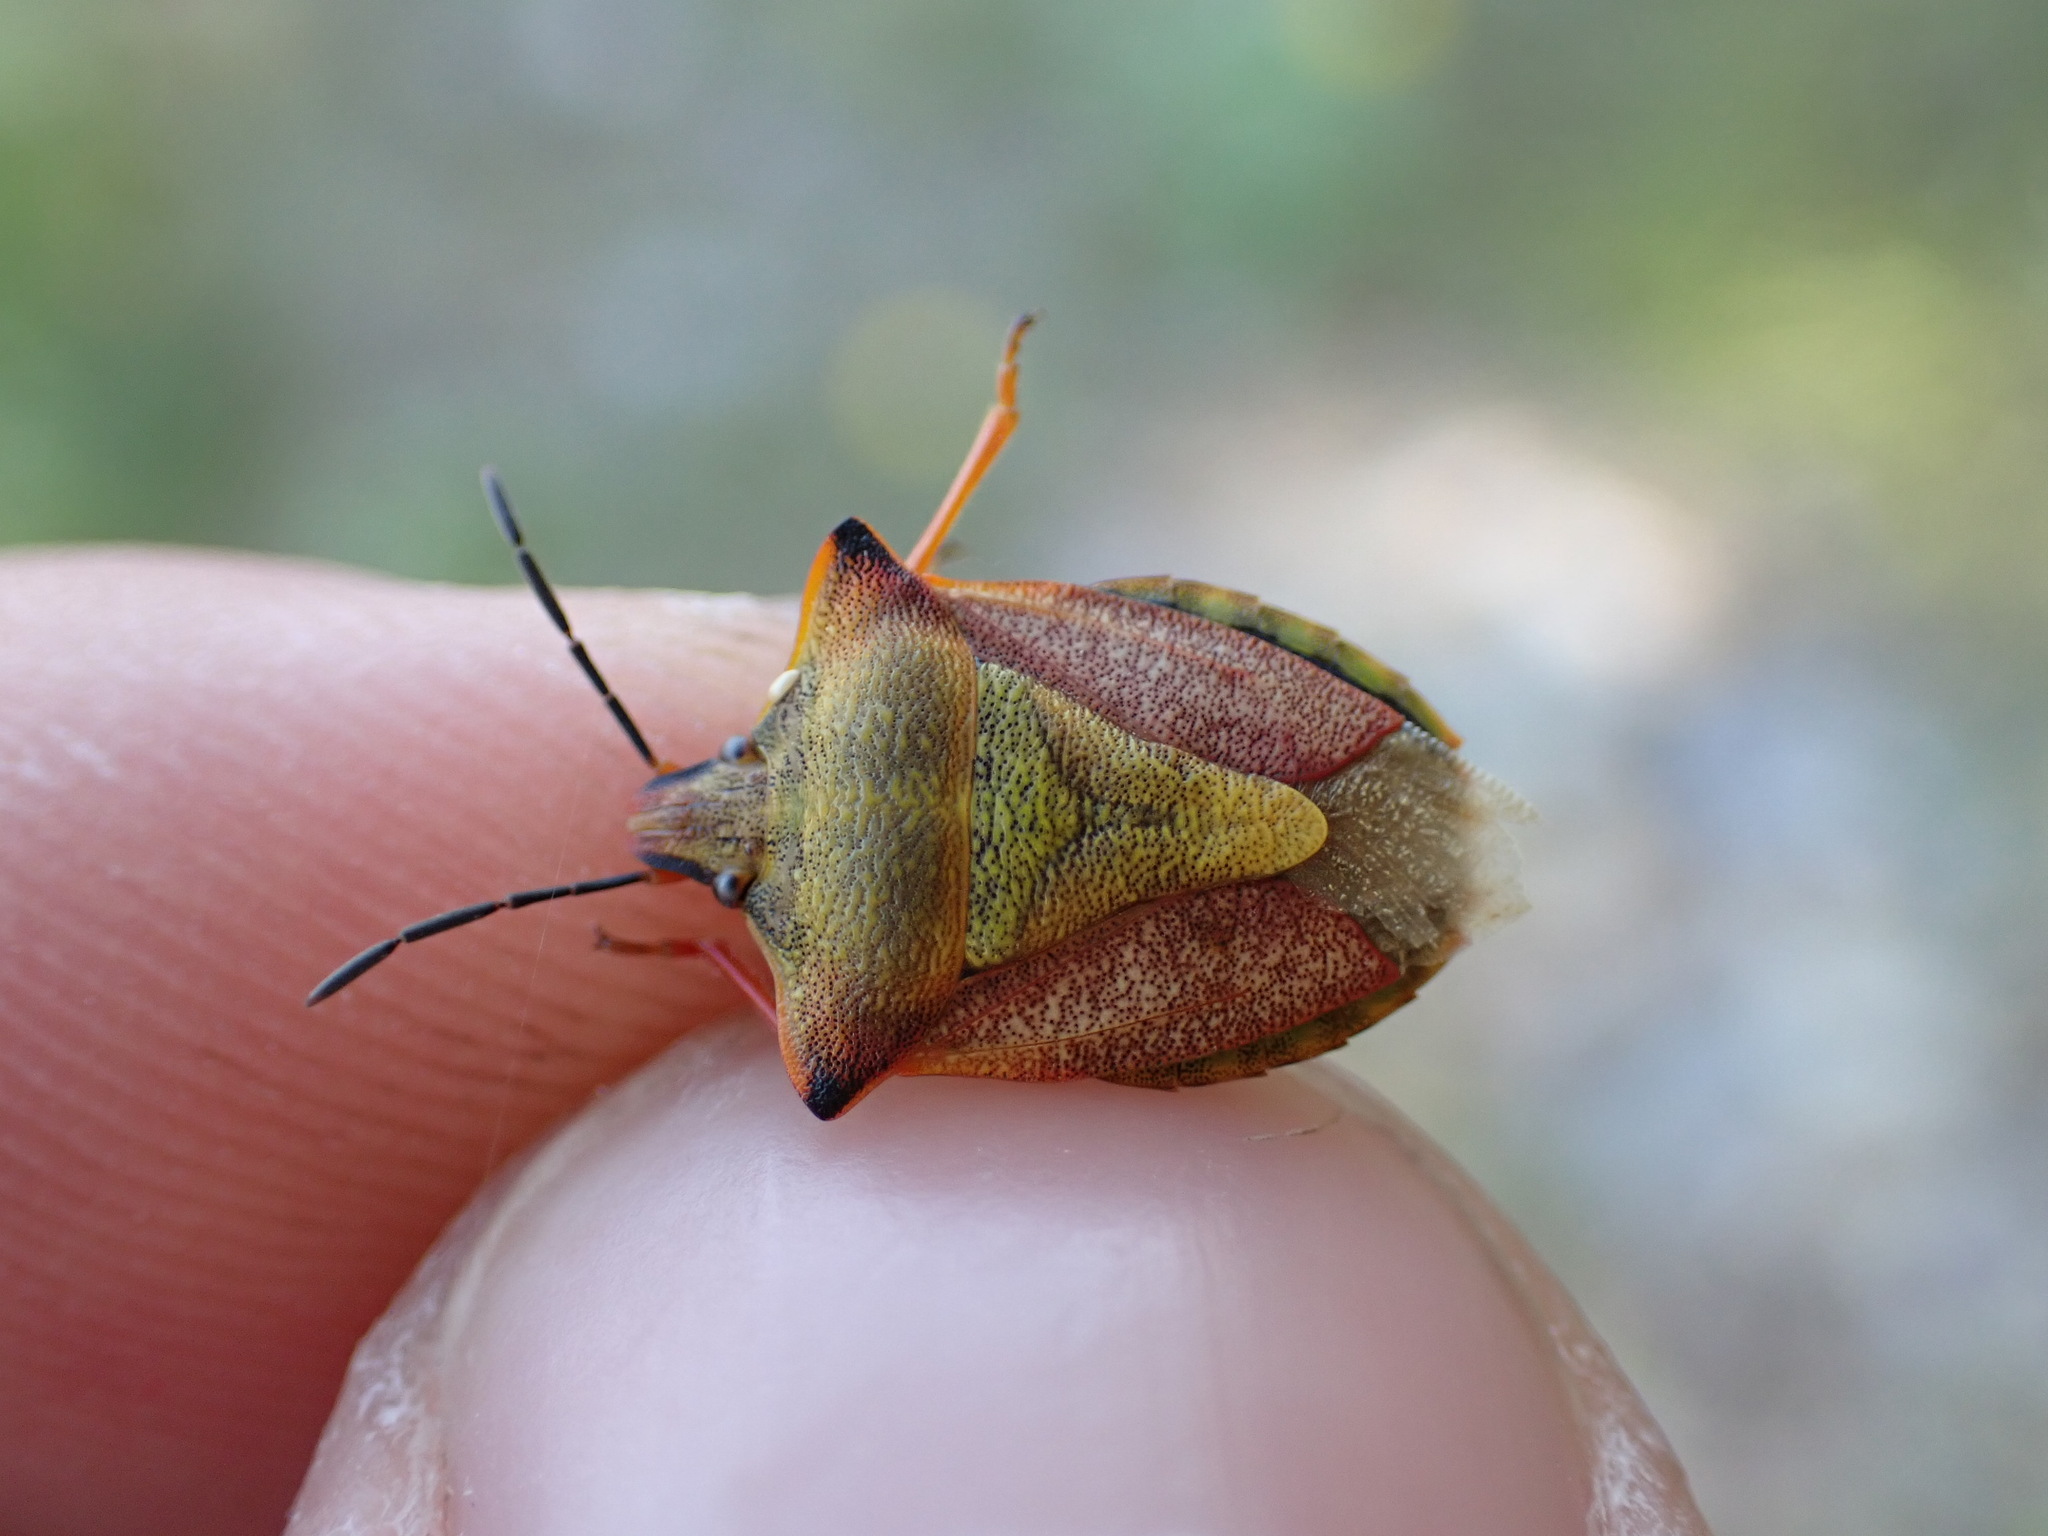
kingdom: Animalia
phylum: Arthropoda
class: Insecta
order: Hemiptera
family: Pentatomidae
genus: Carpocoris
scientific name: Carpocoris mediterraneus
